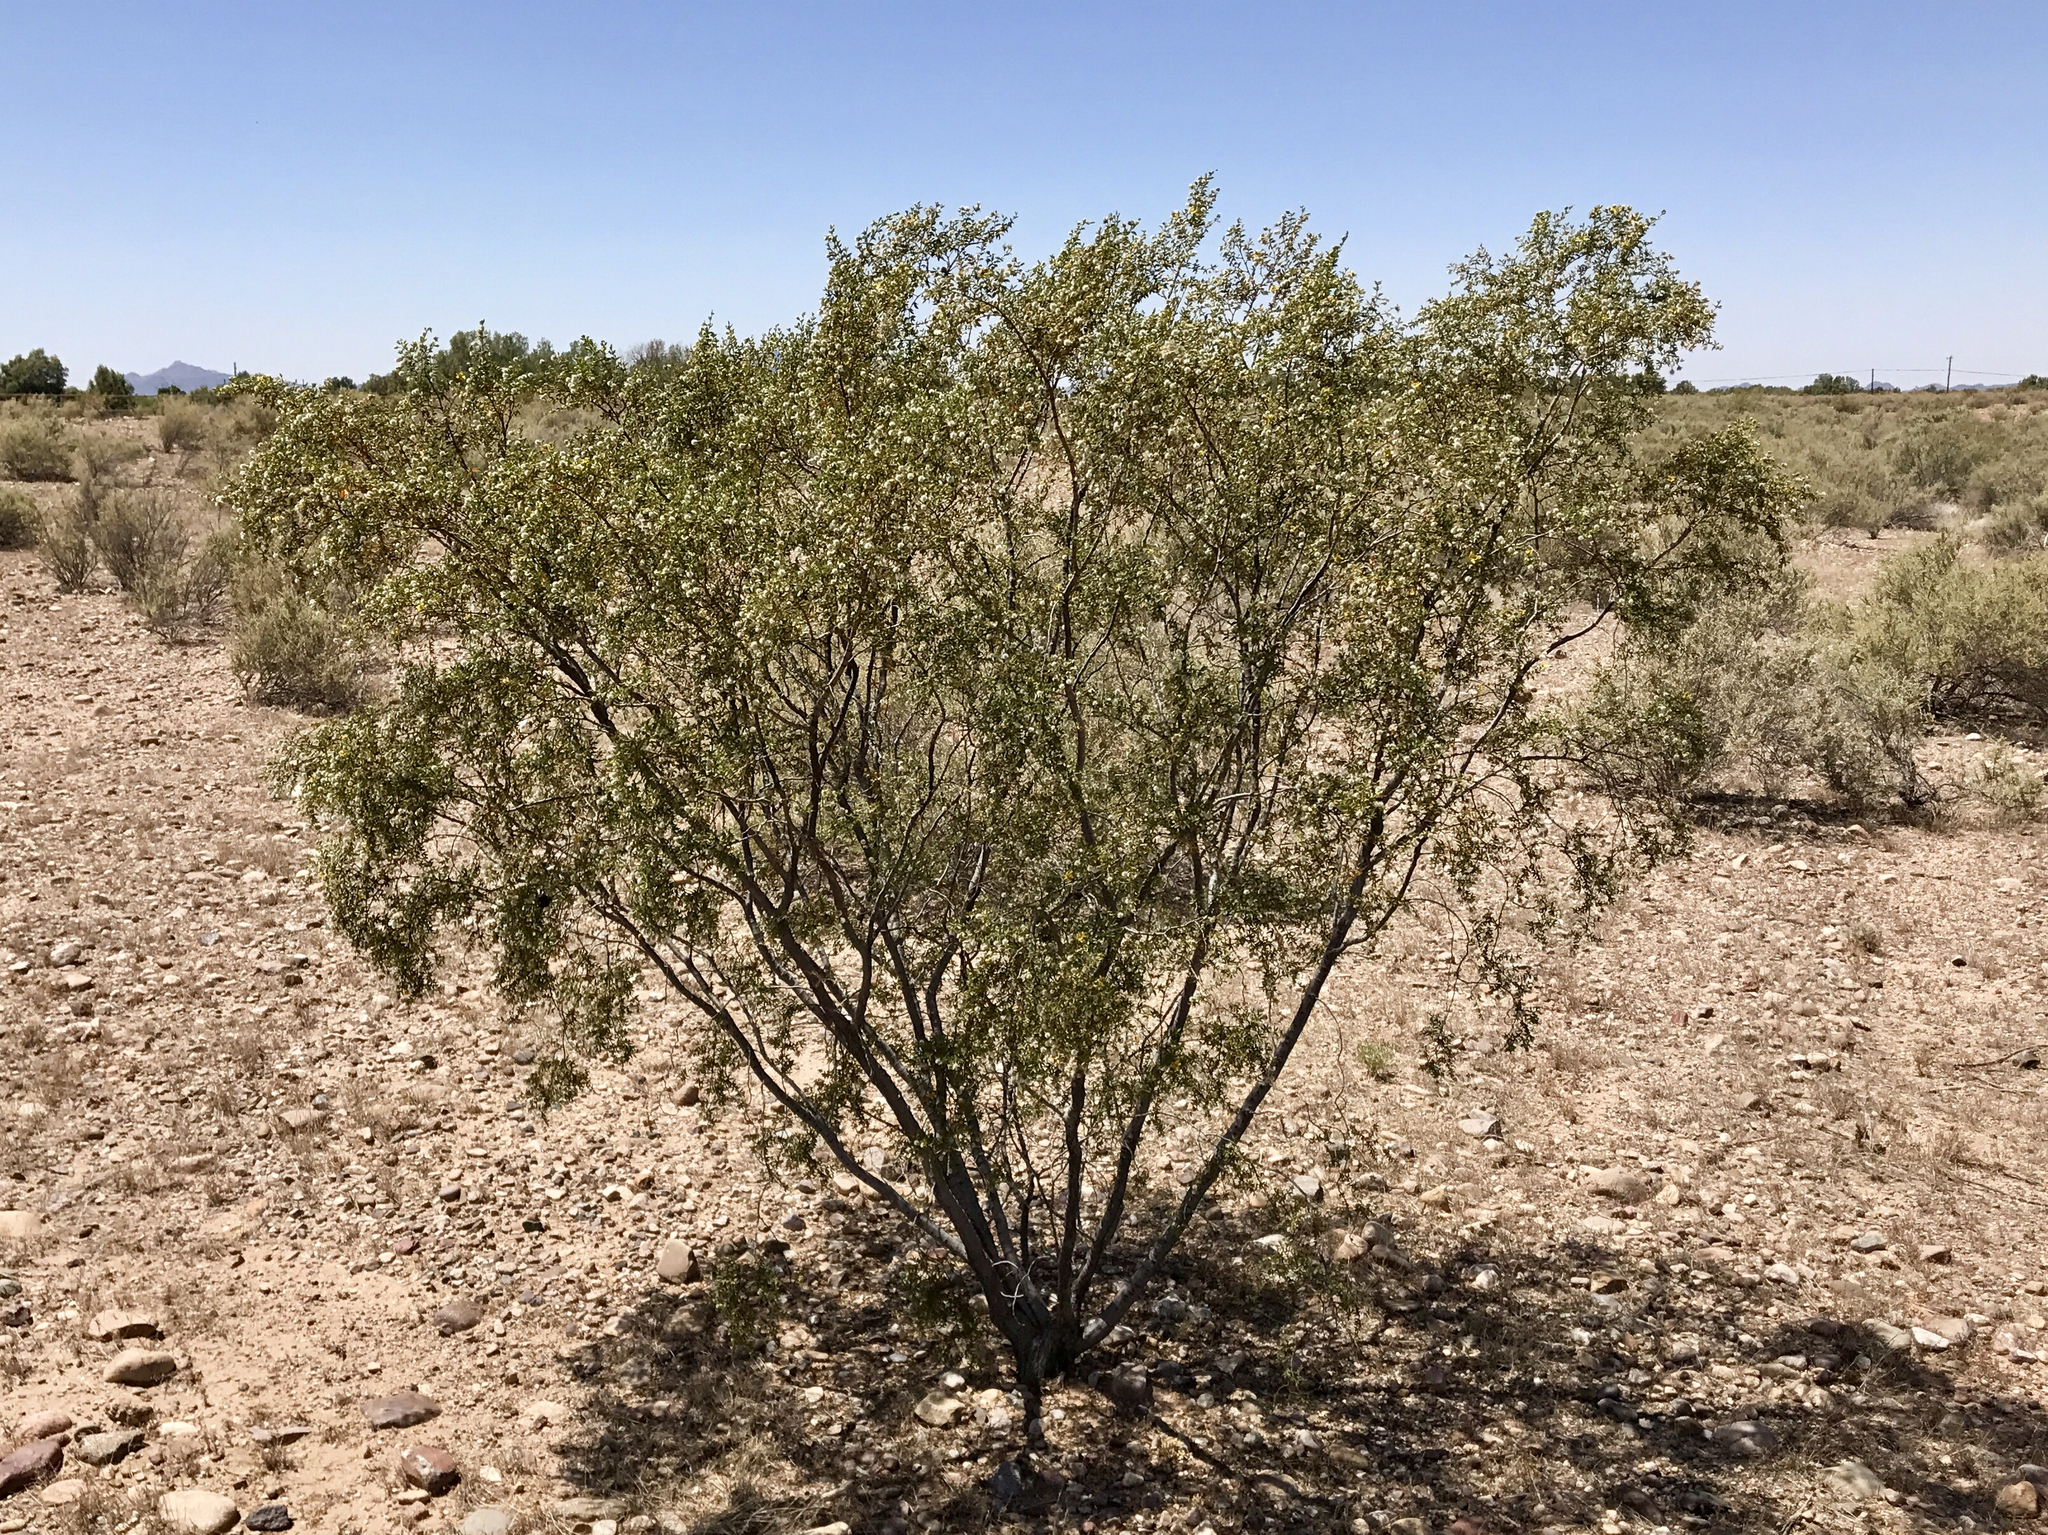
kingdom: Plantae
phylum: Tracheophyta
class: Magnoliopsida
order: Zygophyllales
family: Zygophyllaceae
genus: Larrea
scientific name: Larrea tridentata
